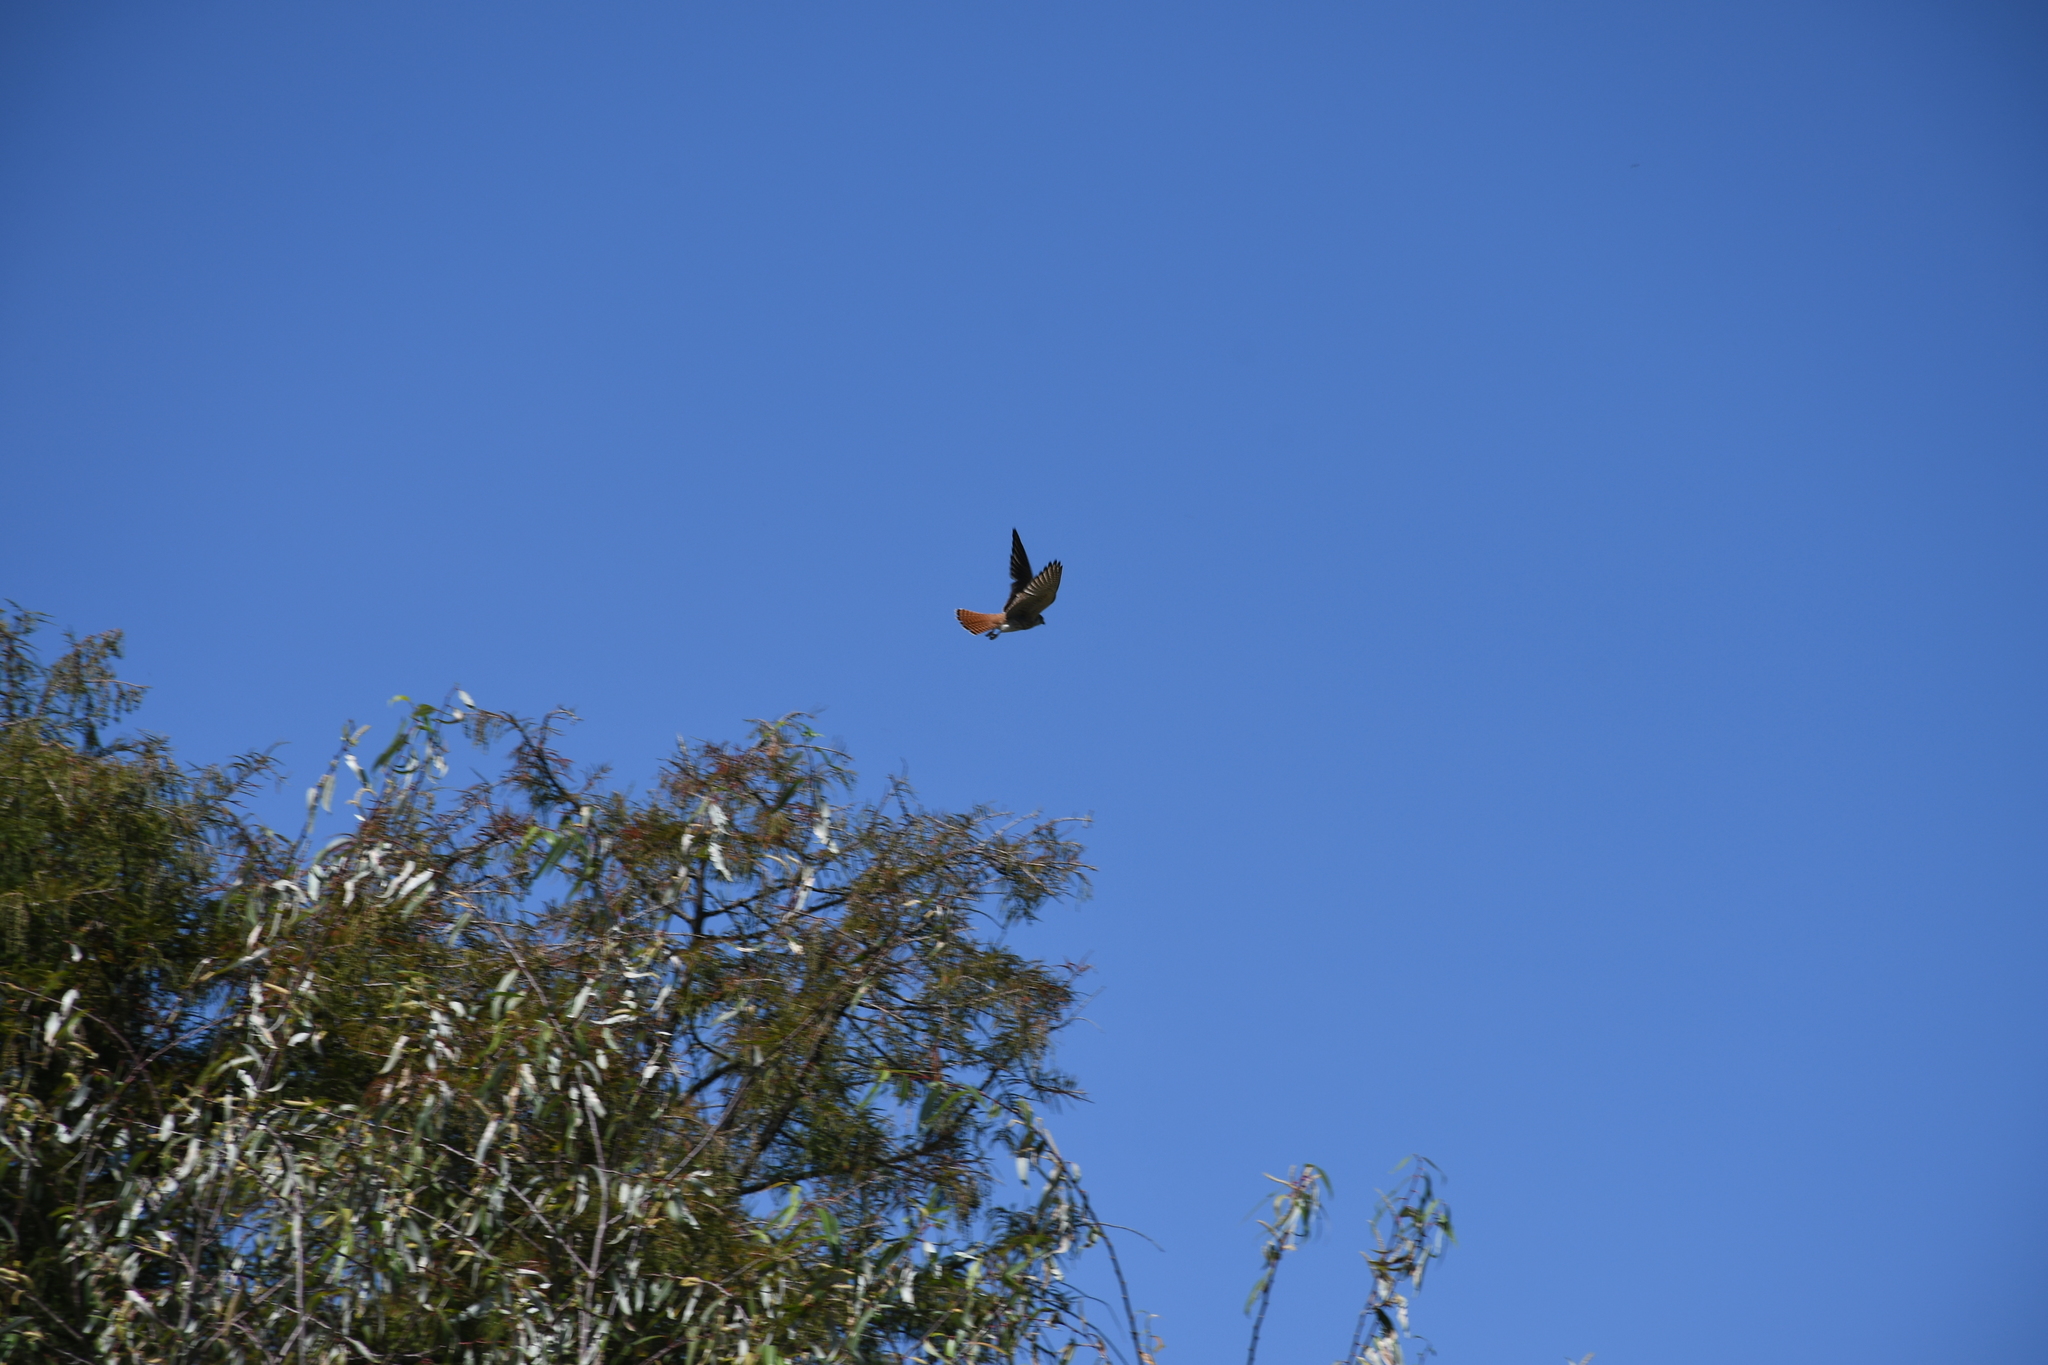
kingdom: Animalia
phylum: Chordata
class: Aves
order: Falconiformes
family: Falconidae
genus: Falco
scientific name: Falco sparverius
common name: American kestrel
